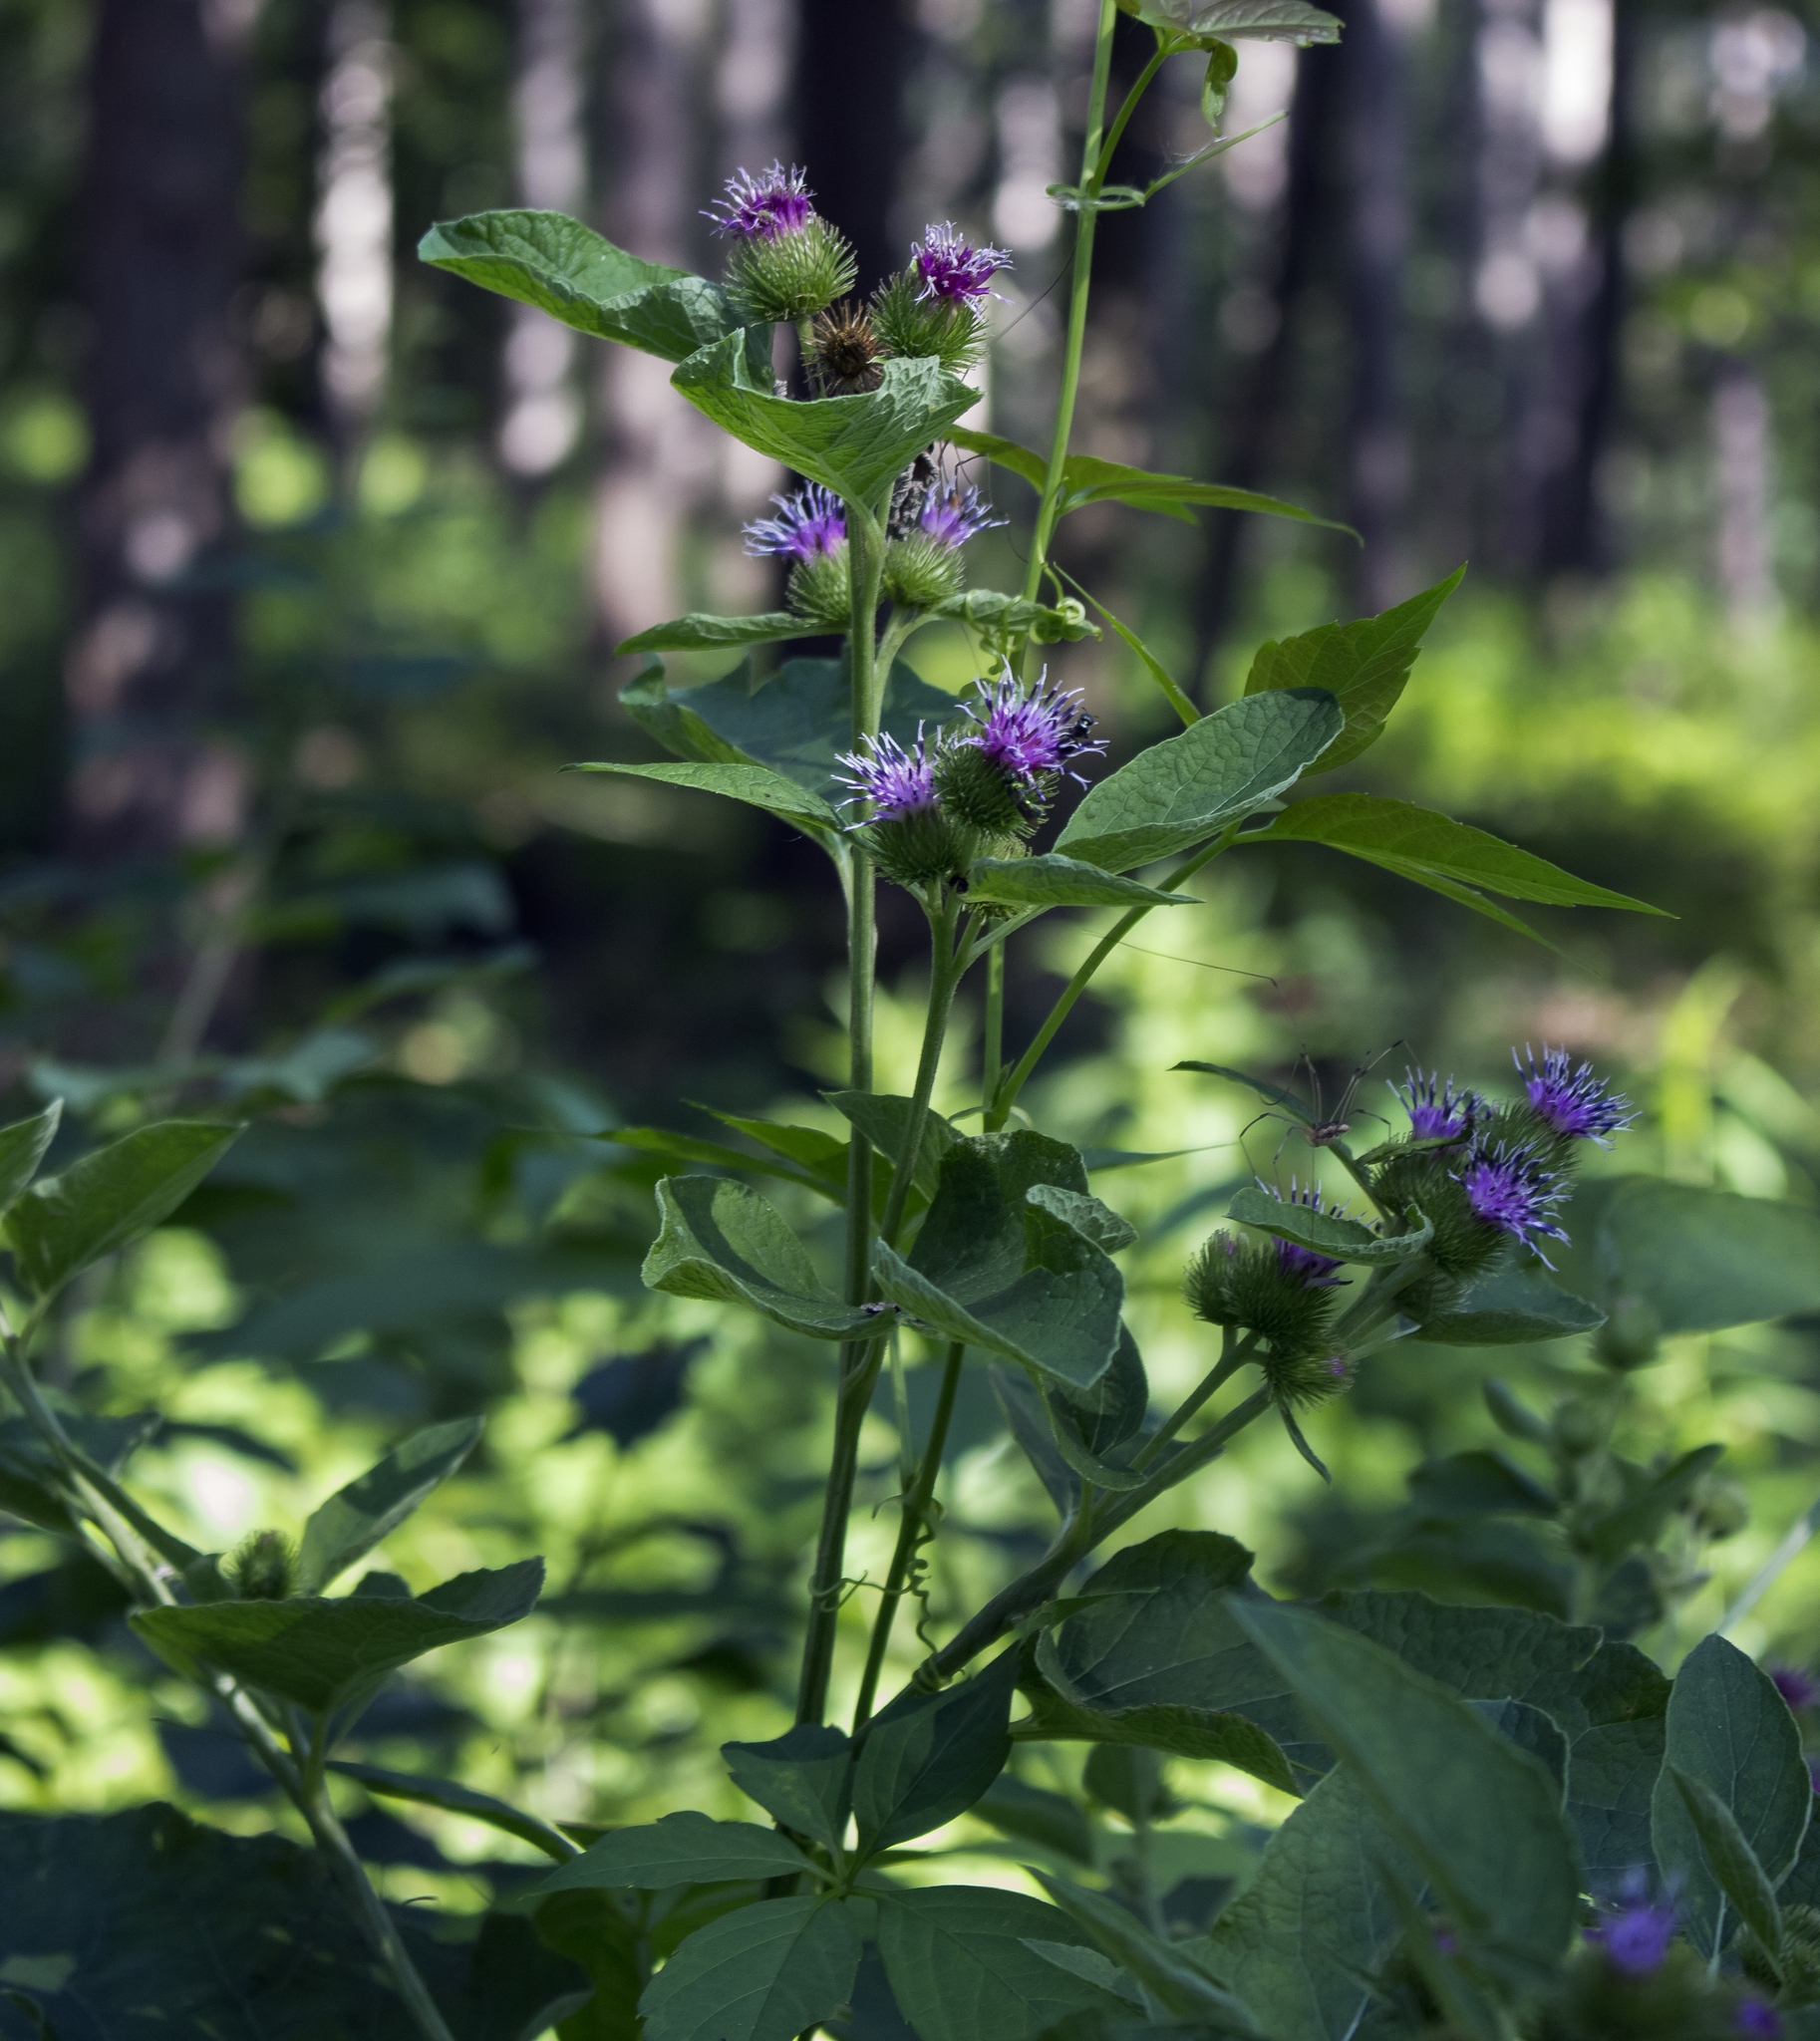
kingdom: Plantae
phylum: Tracheophyta
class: Magnoliopsida
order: Asterales
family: Asteraceae
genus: Arctium
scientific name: Arctium minus
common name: Lesser burdock
